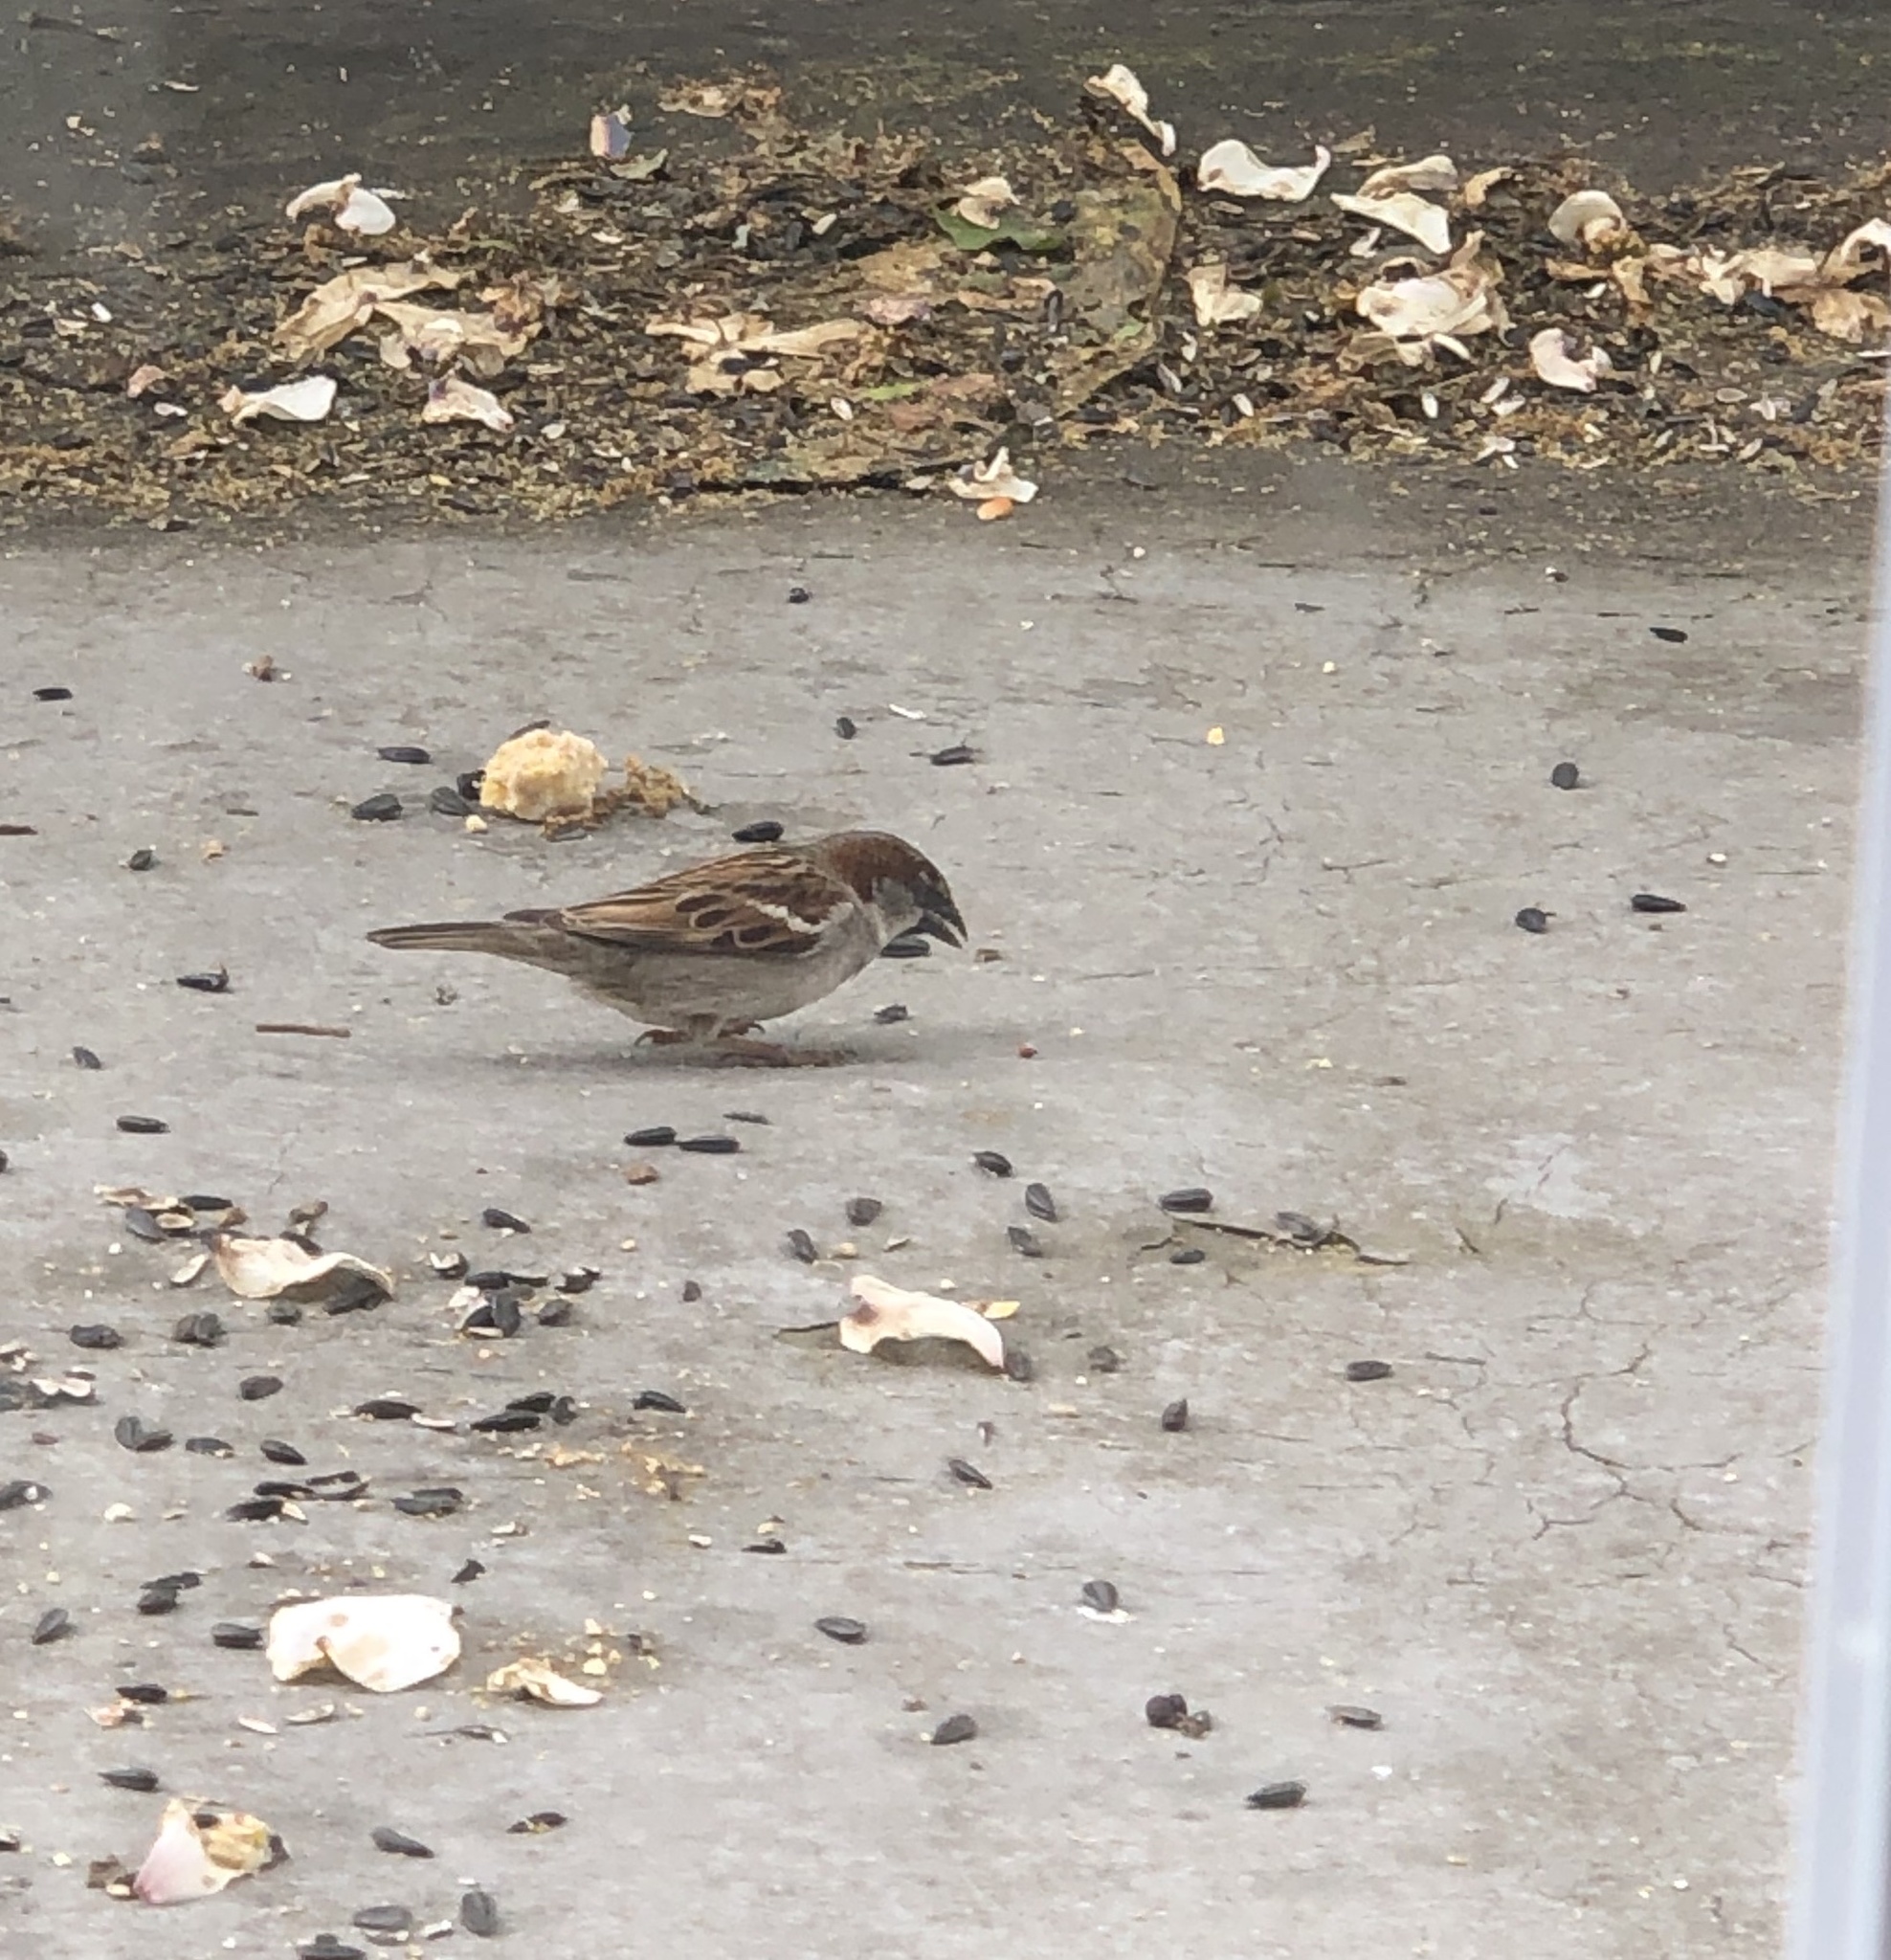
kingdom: Animalia
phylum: Chordata
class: Aves
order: Passeriformes
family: Passeridae
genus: Passer
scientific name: Passer domesticus
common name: House sparrow
